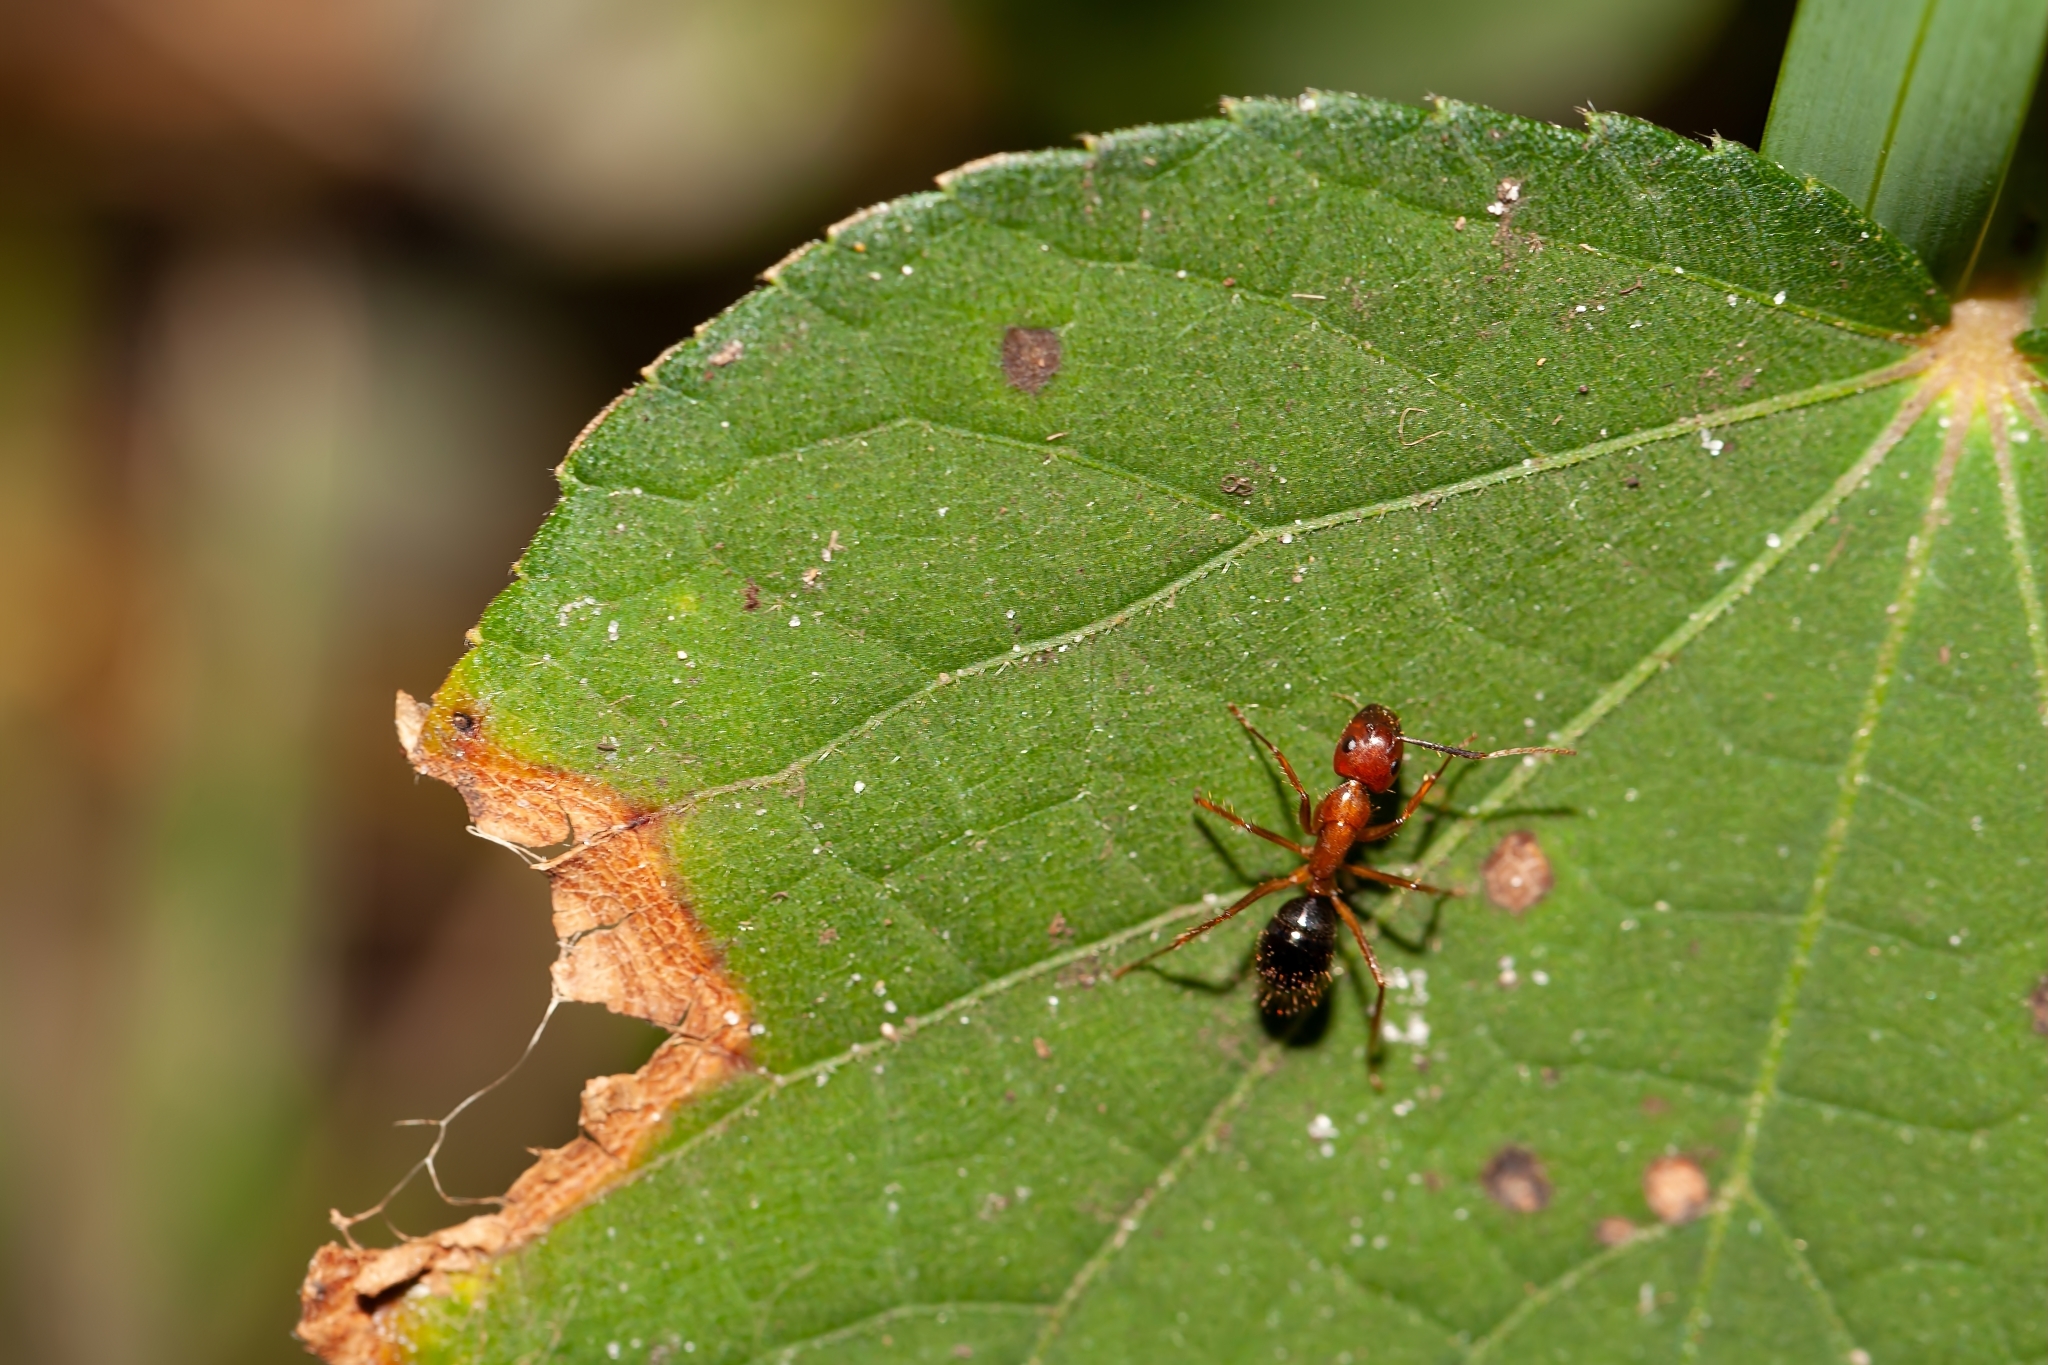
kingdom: Animalia
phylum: Arthropoda
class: Insecta
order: Hymenoptera
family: Formicidae
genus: Camponotus
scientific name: Camponotus floridanus
